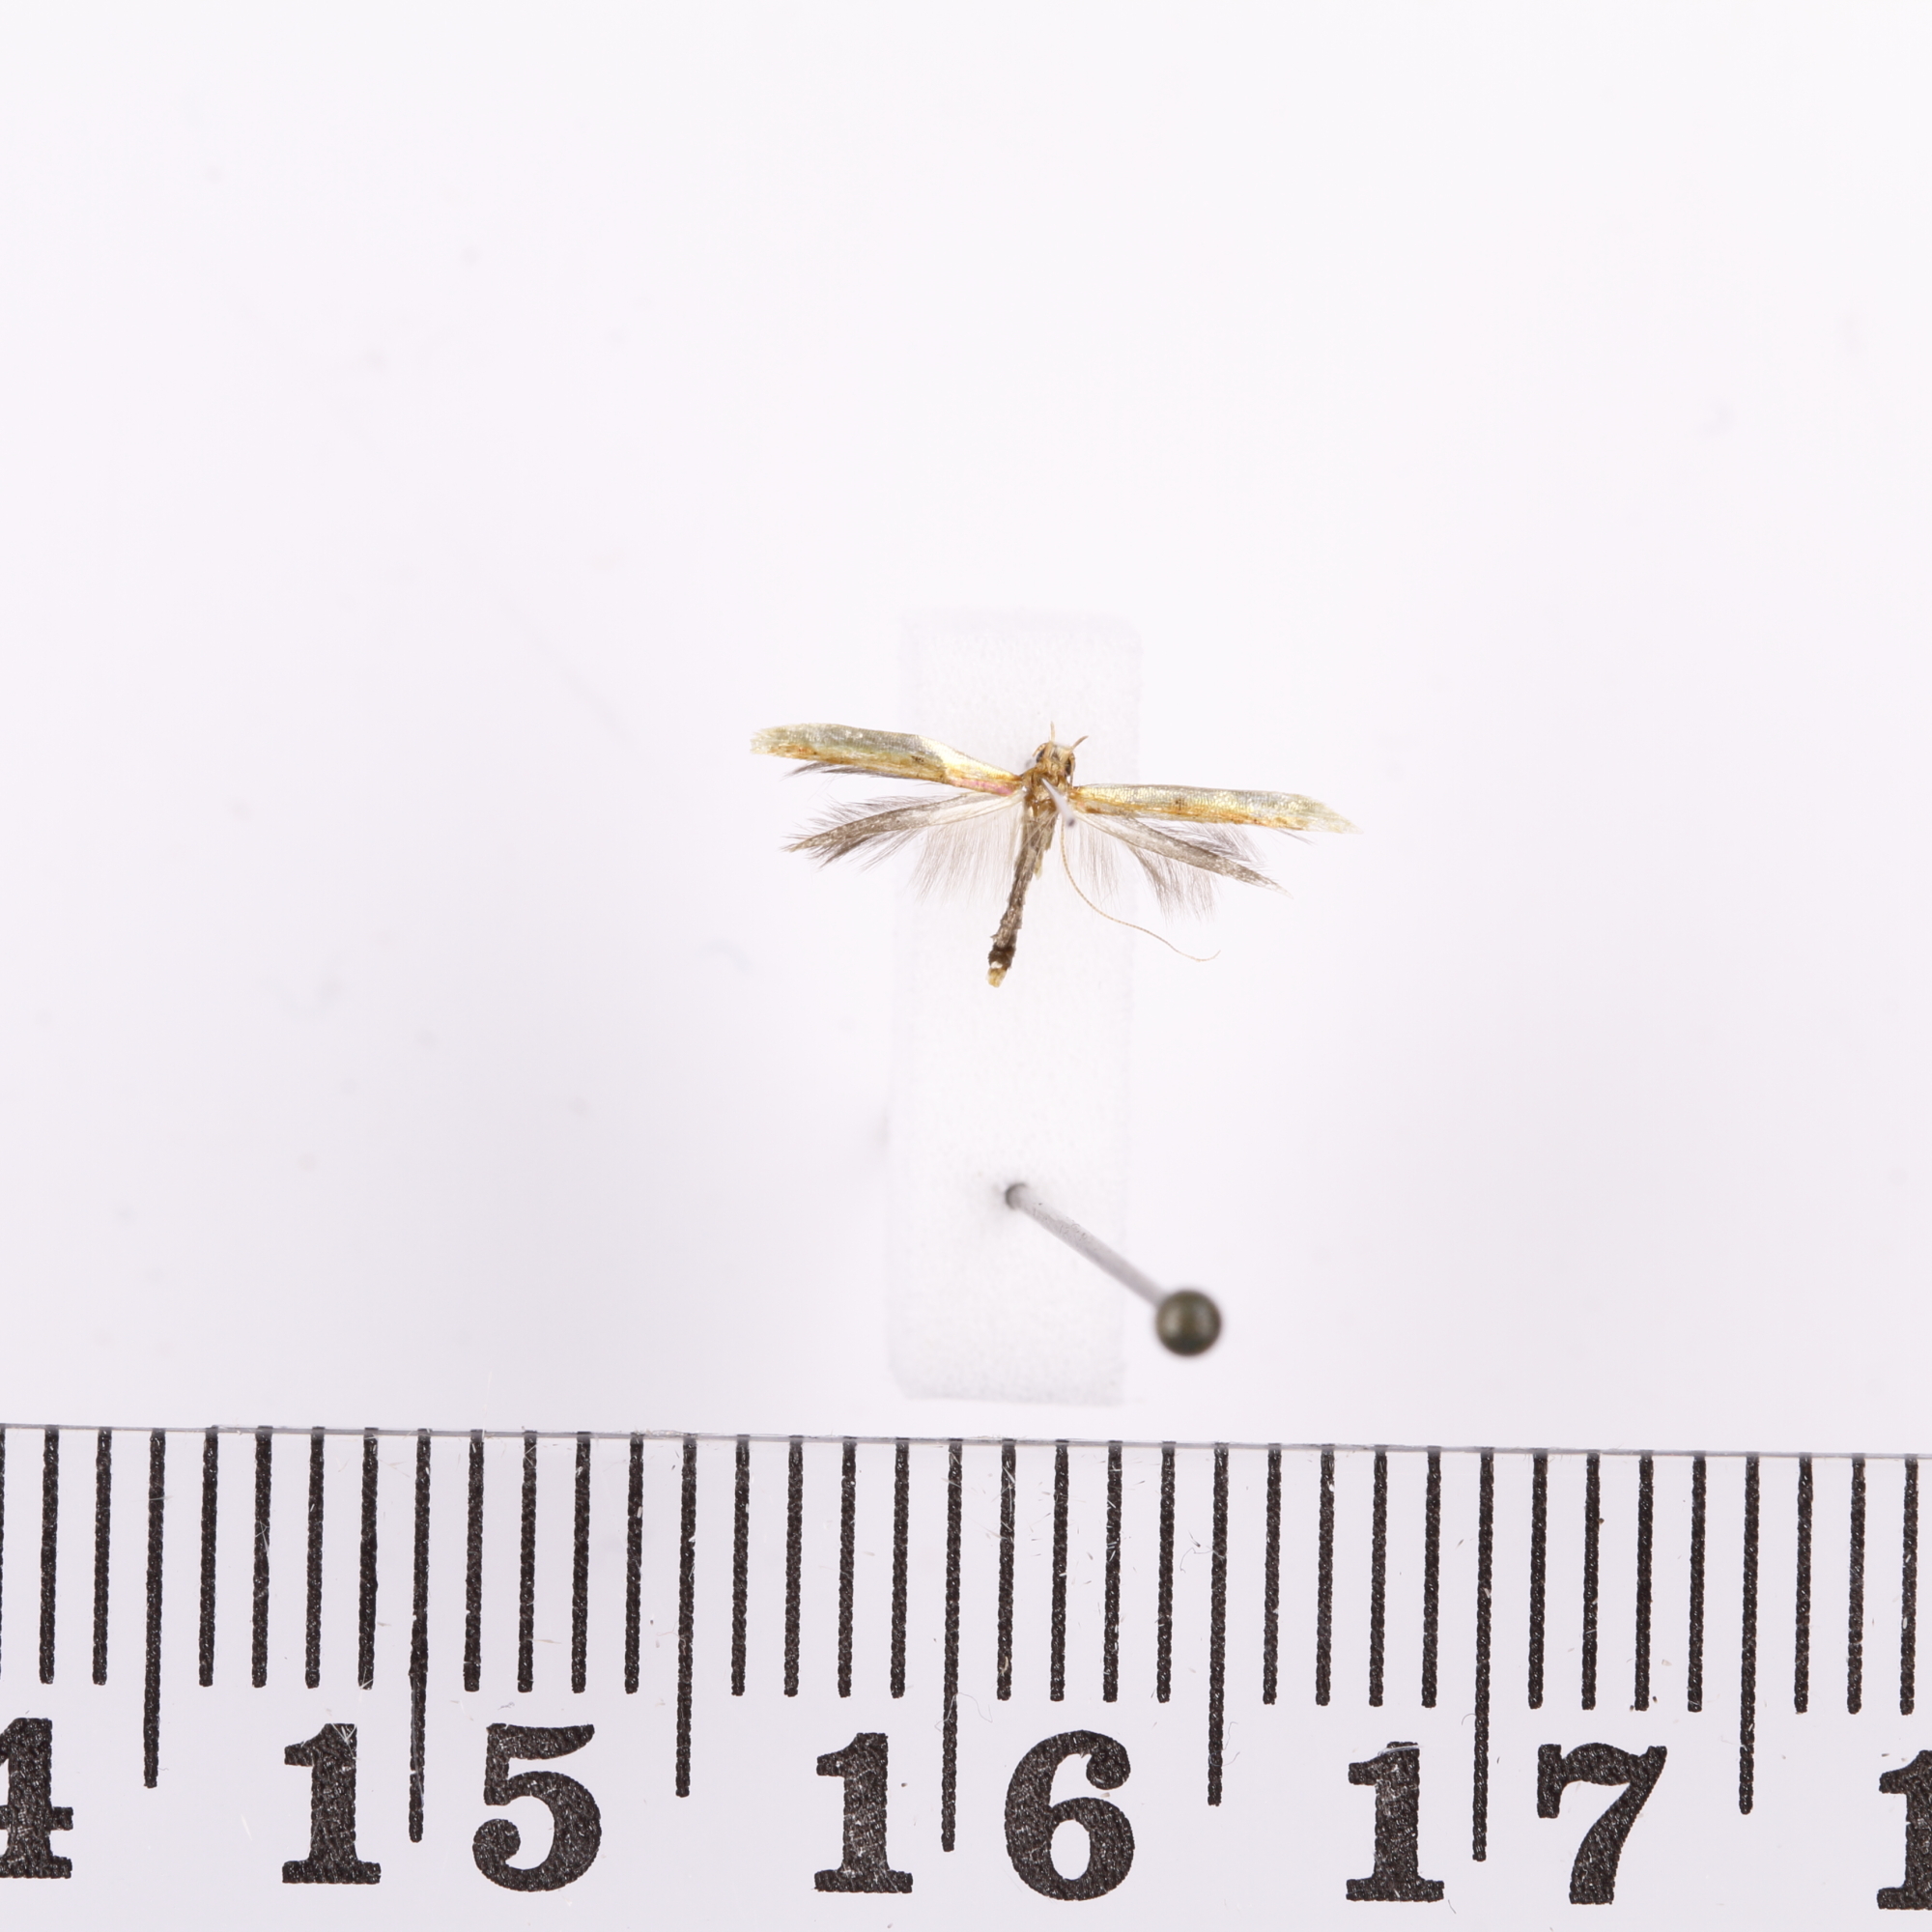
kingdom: Animalia
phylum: Arthropoda
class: Insecta
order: Lepidoptera
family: Gracillariidae
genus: Caloptilia
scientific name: Caloptilia chrysitis
